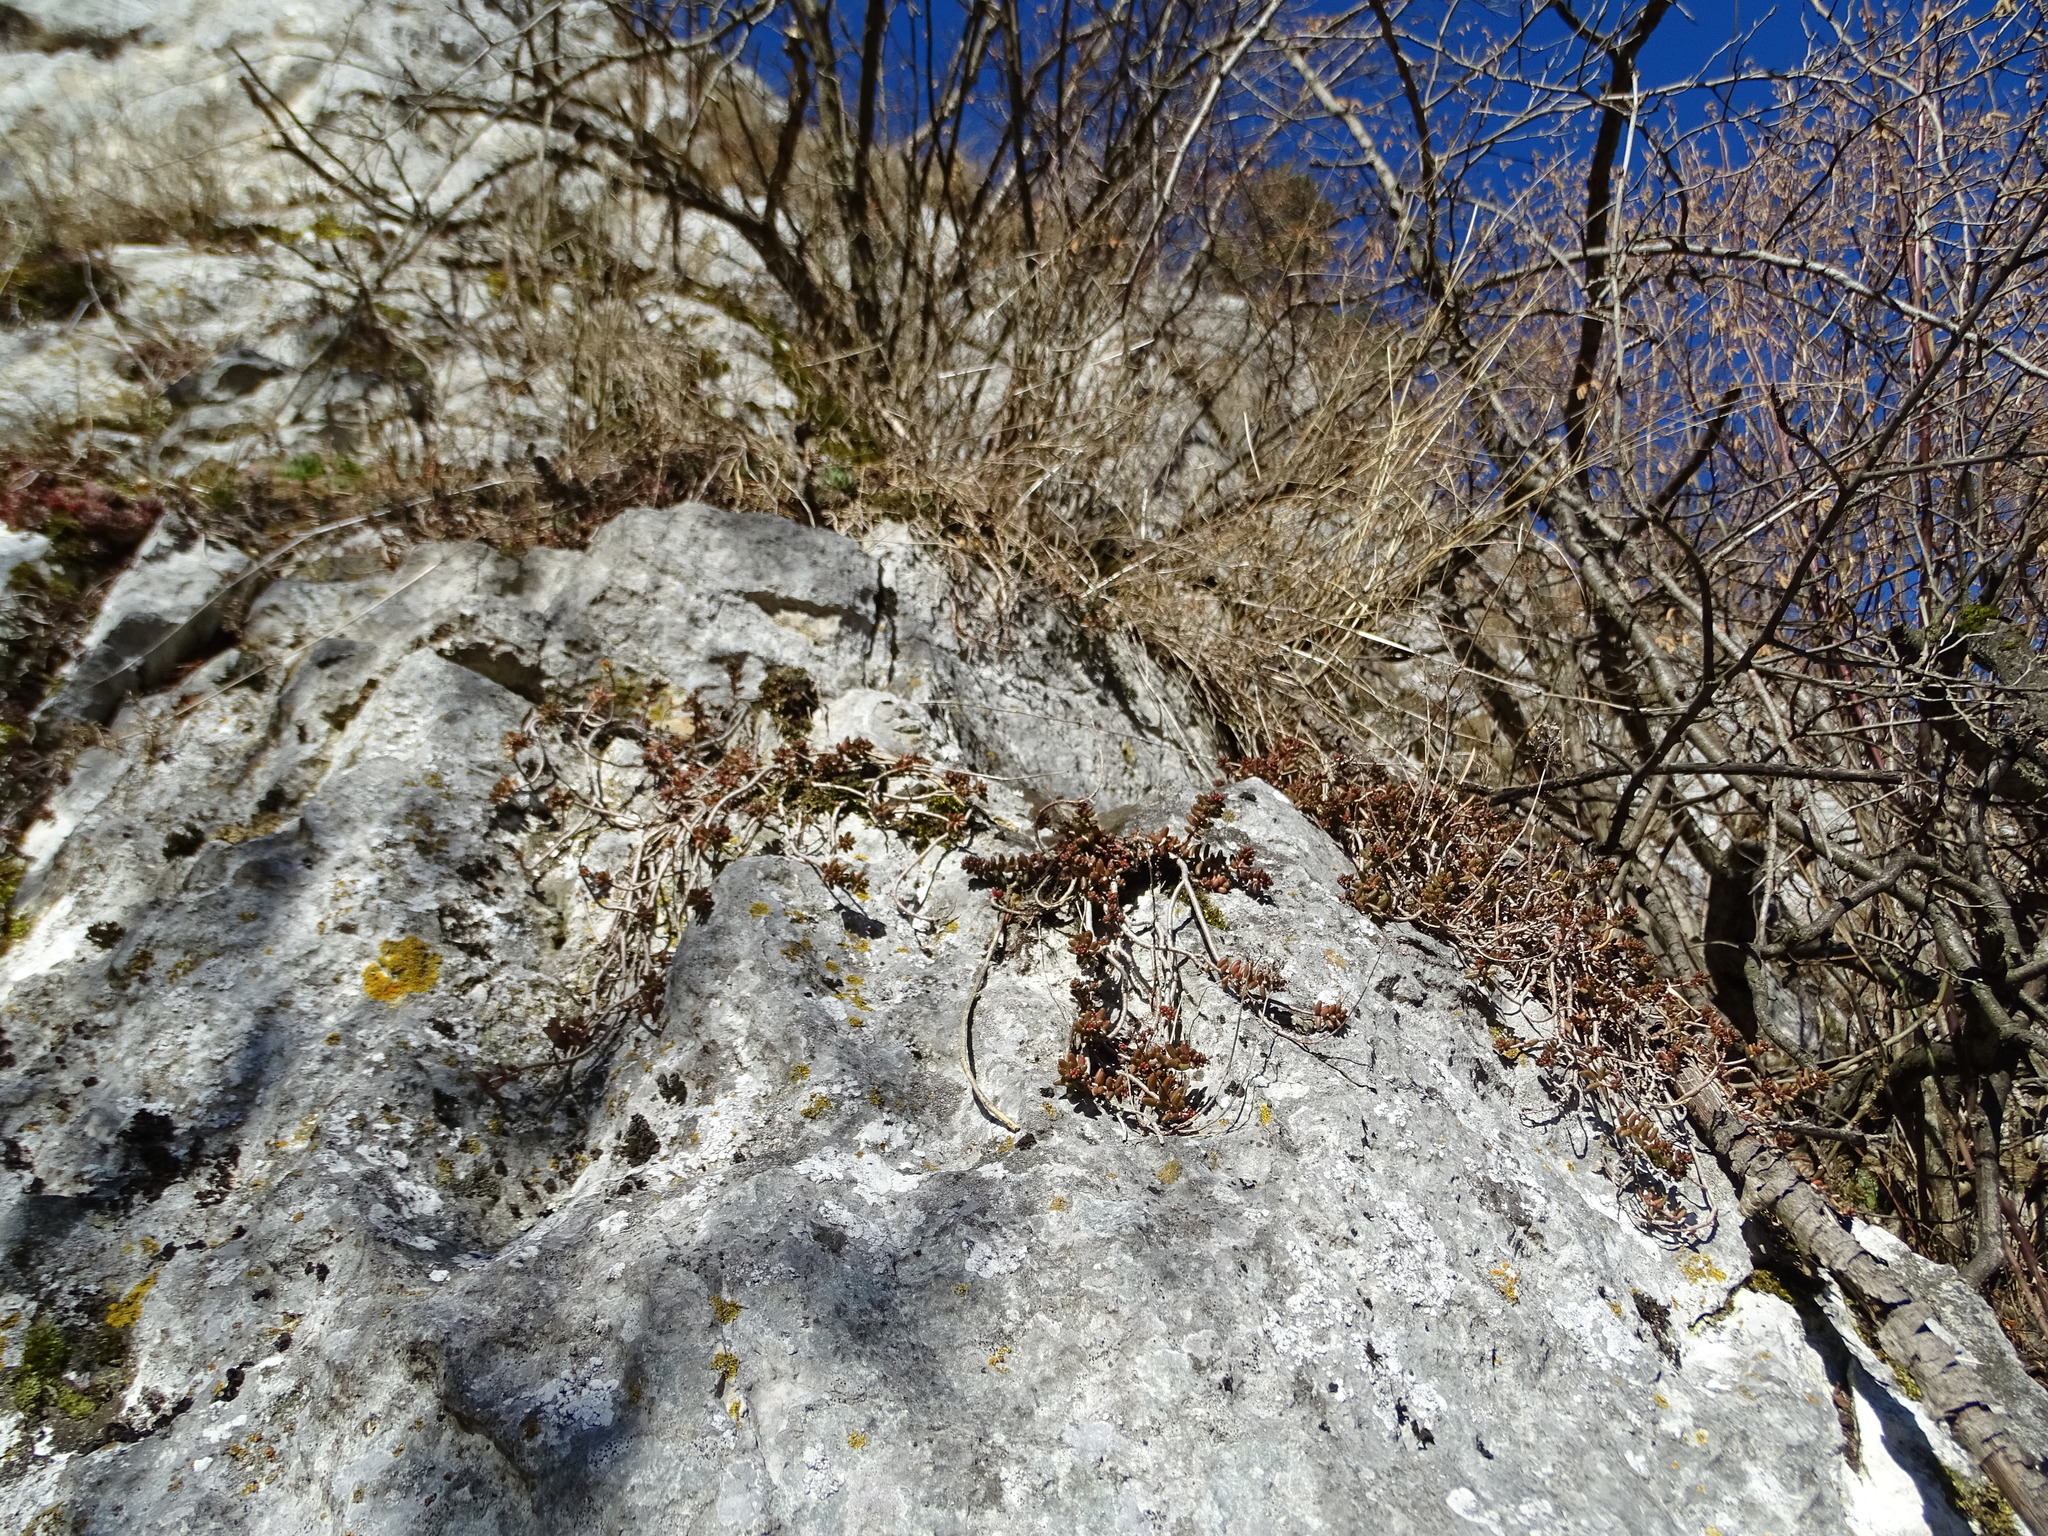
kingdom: Plantae
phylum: Tracheophyta
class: Magnoliopsida
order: Saxifragales
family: Crassulaceae
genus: Sedum
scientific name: Sedum album
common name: White stonecrop
